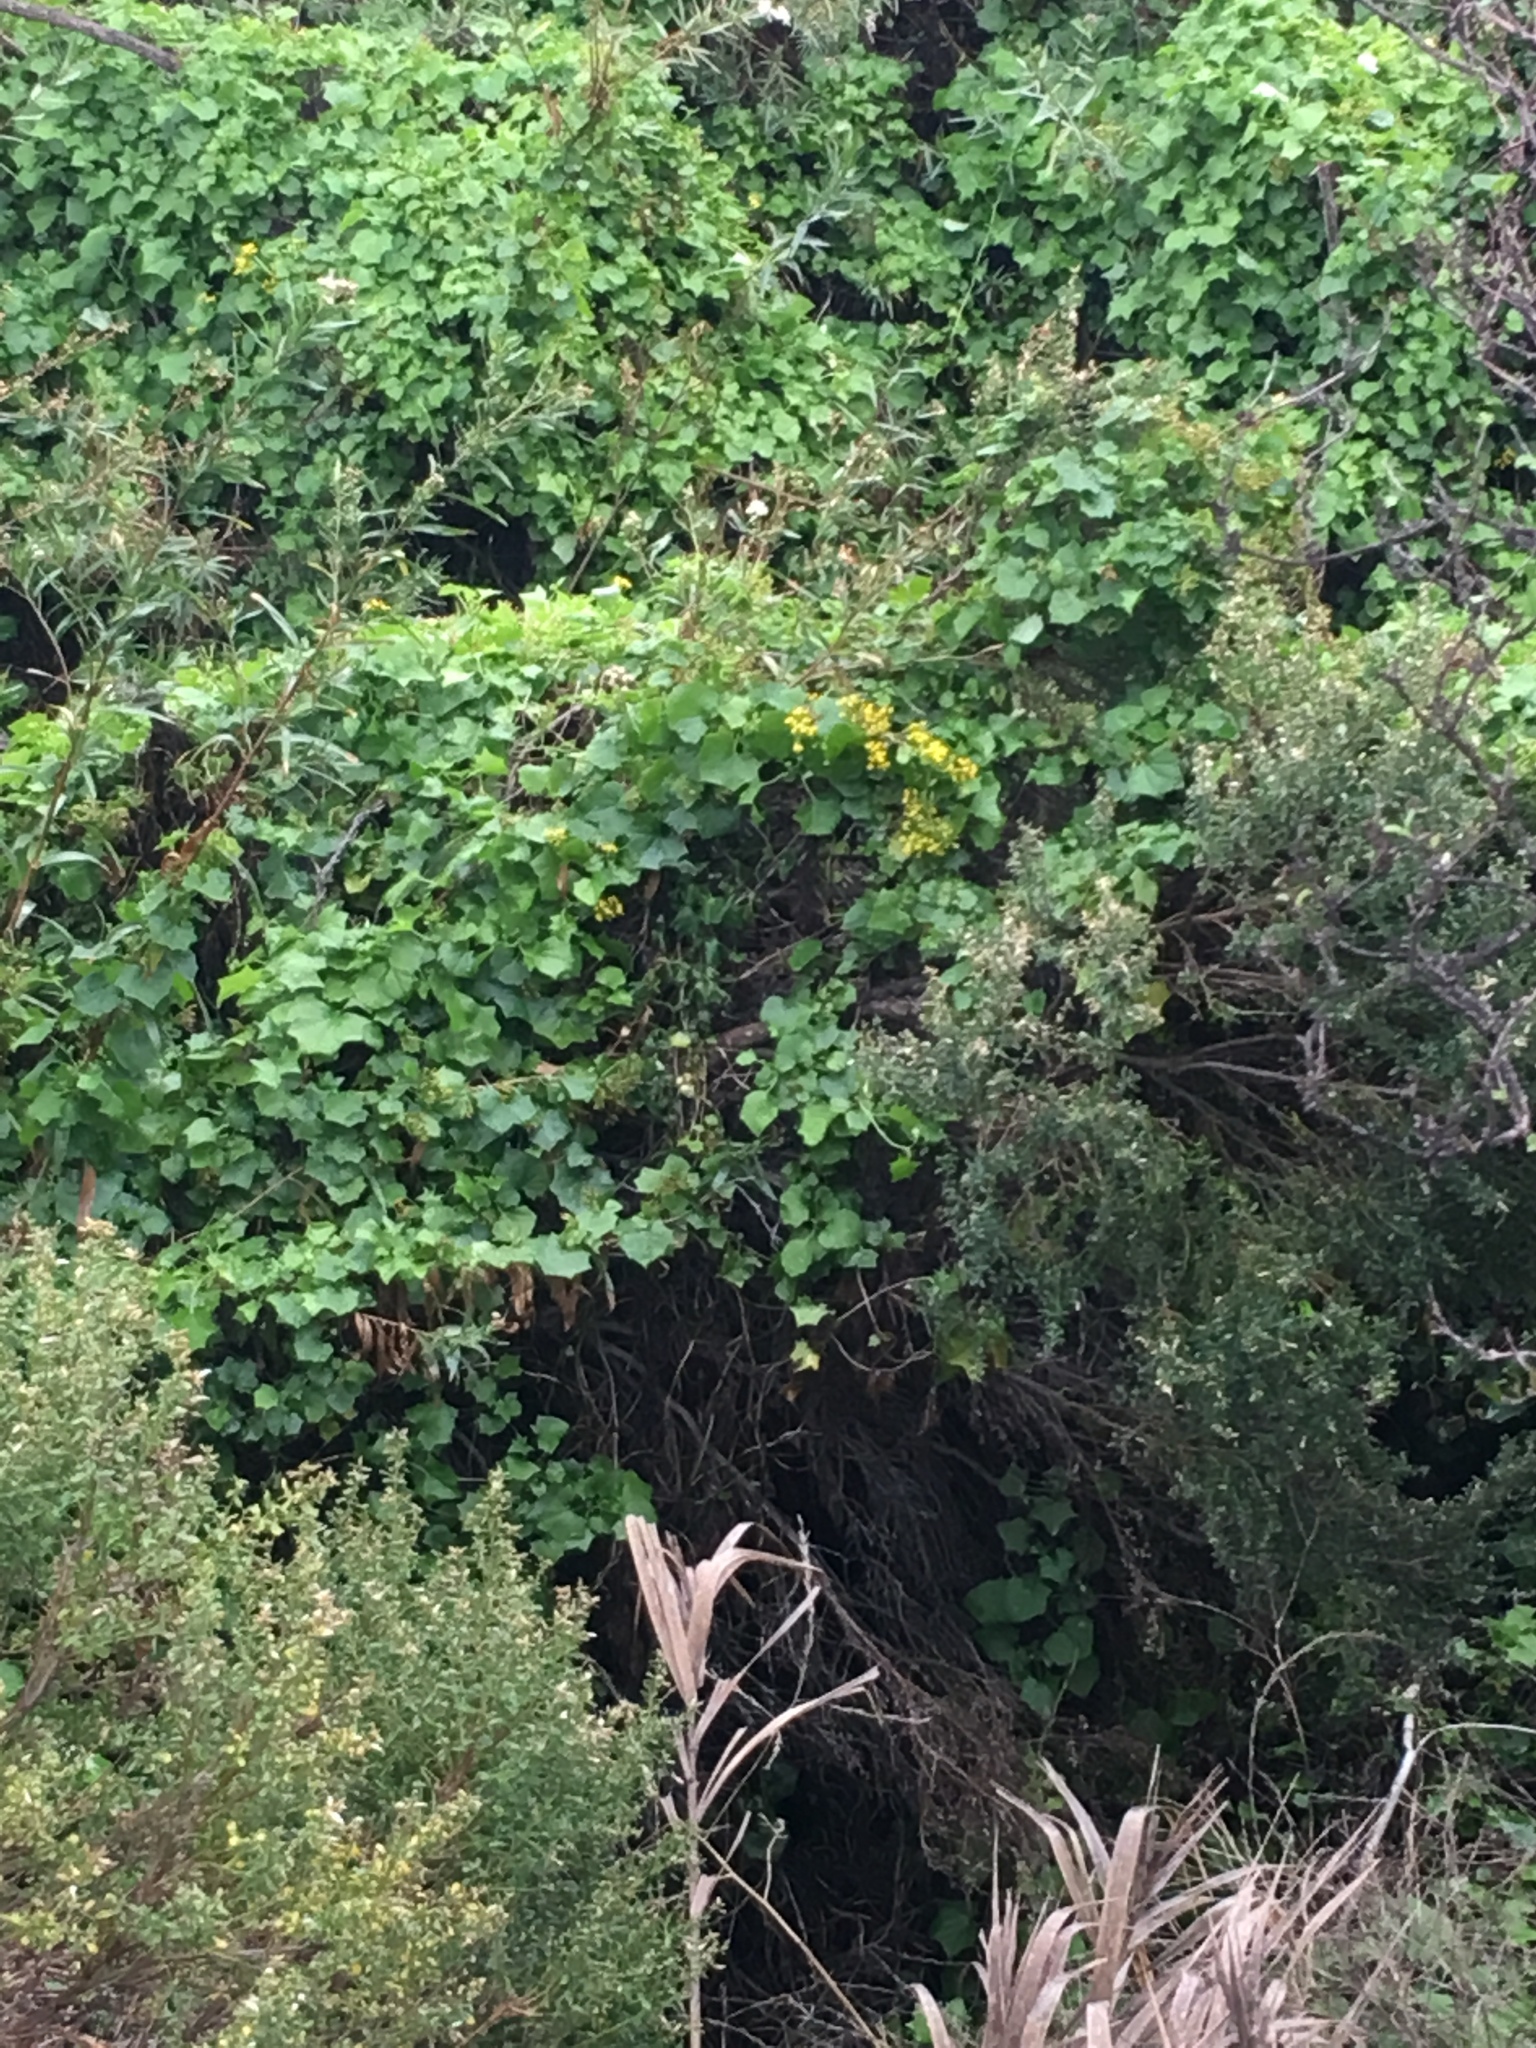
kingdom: Plantae
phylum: Tracheophyta
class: Magnoliopsida
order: Asterales
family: Asteraceae
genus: Delairea
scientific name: Delairea odorata
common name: Cape-ivy
